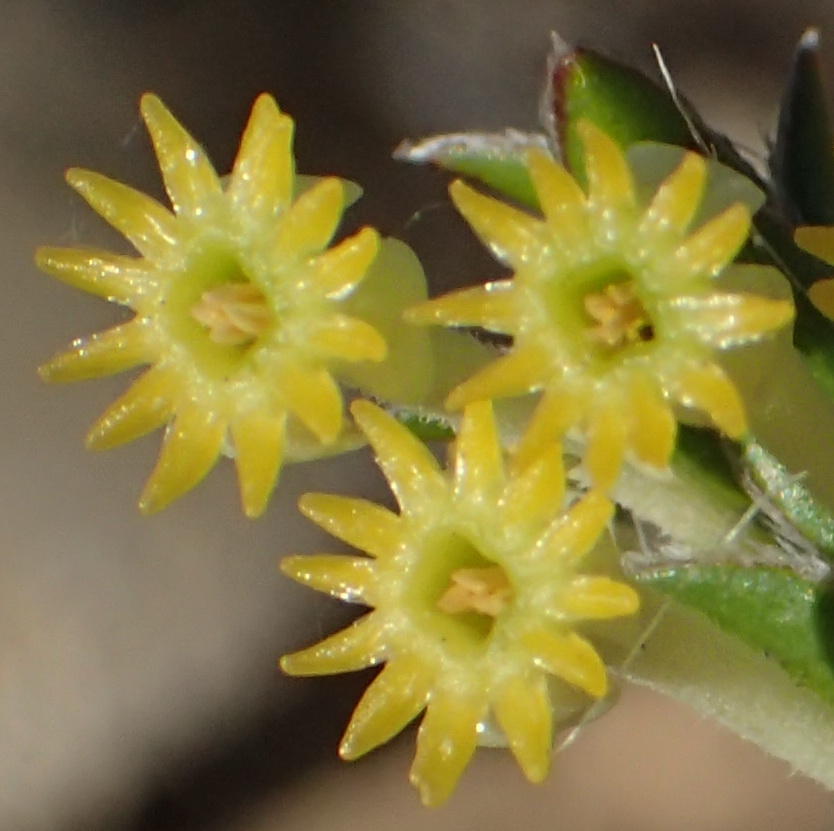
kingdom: Plantae
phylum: Tracheophyta
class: Magnoliopsida
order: Malvales
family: Thymelaeaceae
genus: Struthiola
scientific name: Struthiola argentea
